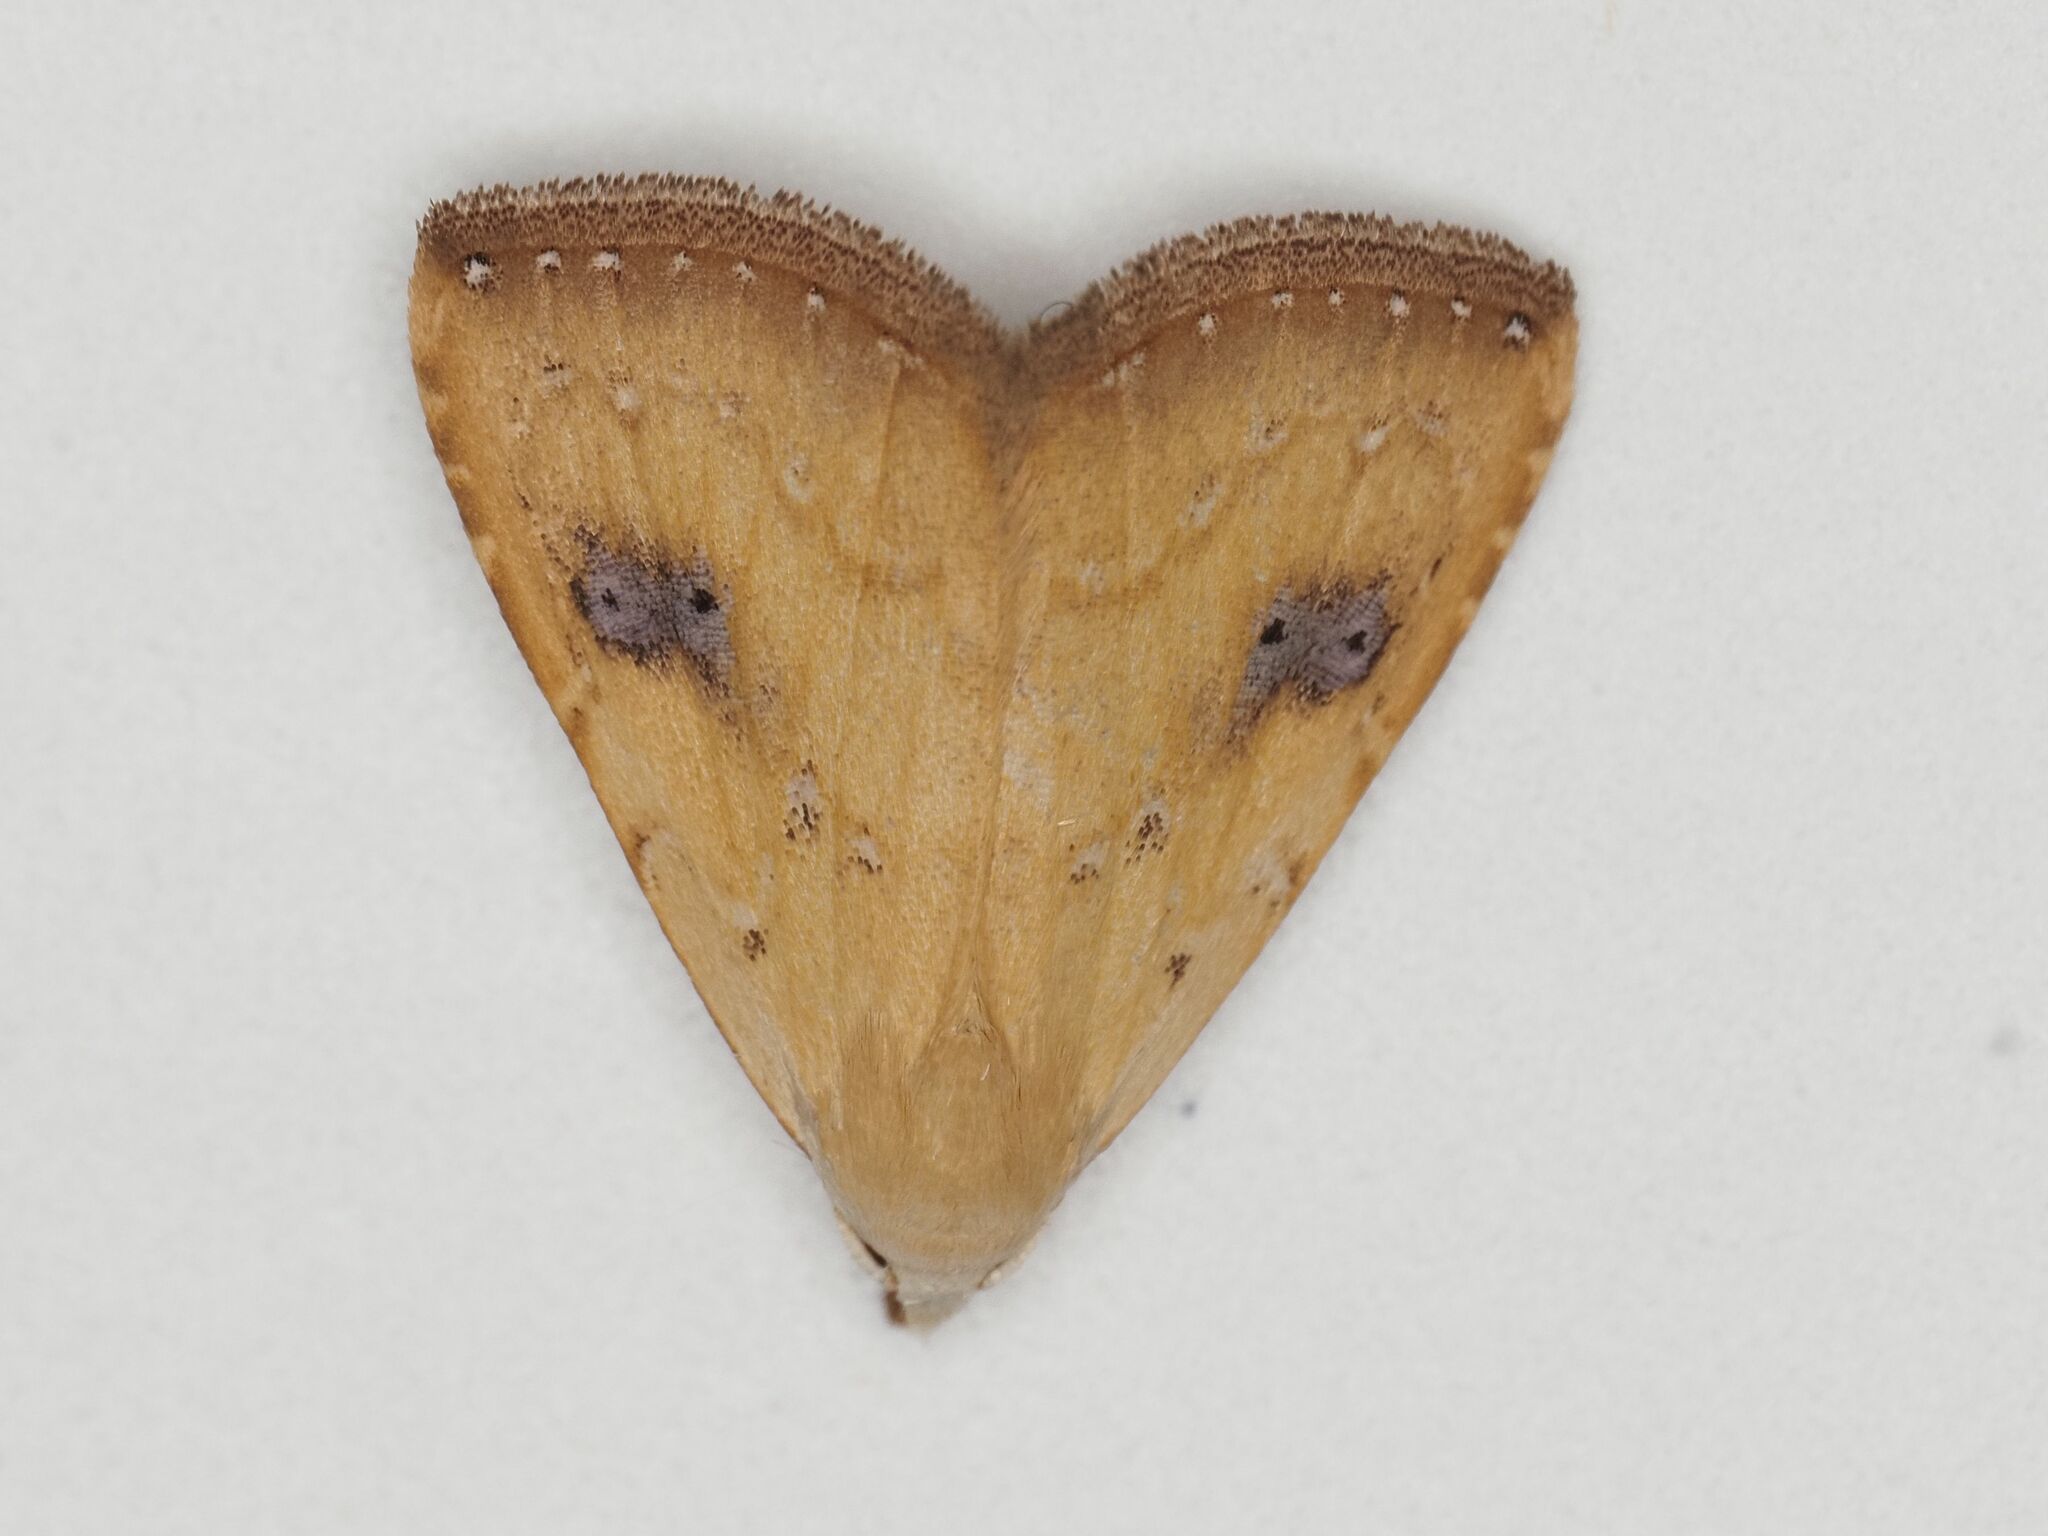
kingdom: Animalia
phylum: Arthropoda
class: Insecta
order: Lepidoptera
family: Erebidae
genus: Rivula
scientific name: Rivula sericealis
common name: Straw dot
